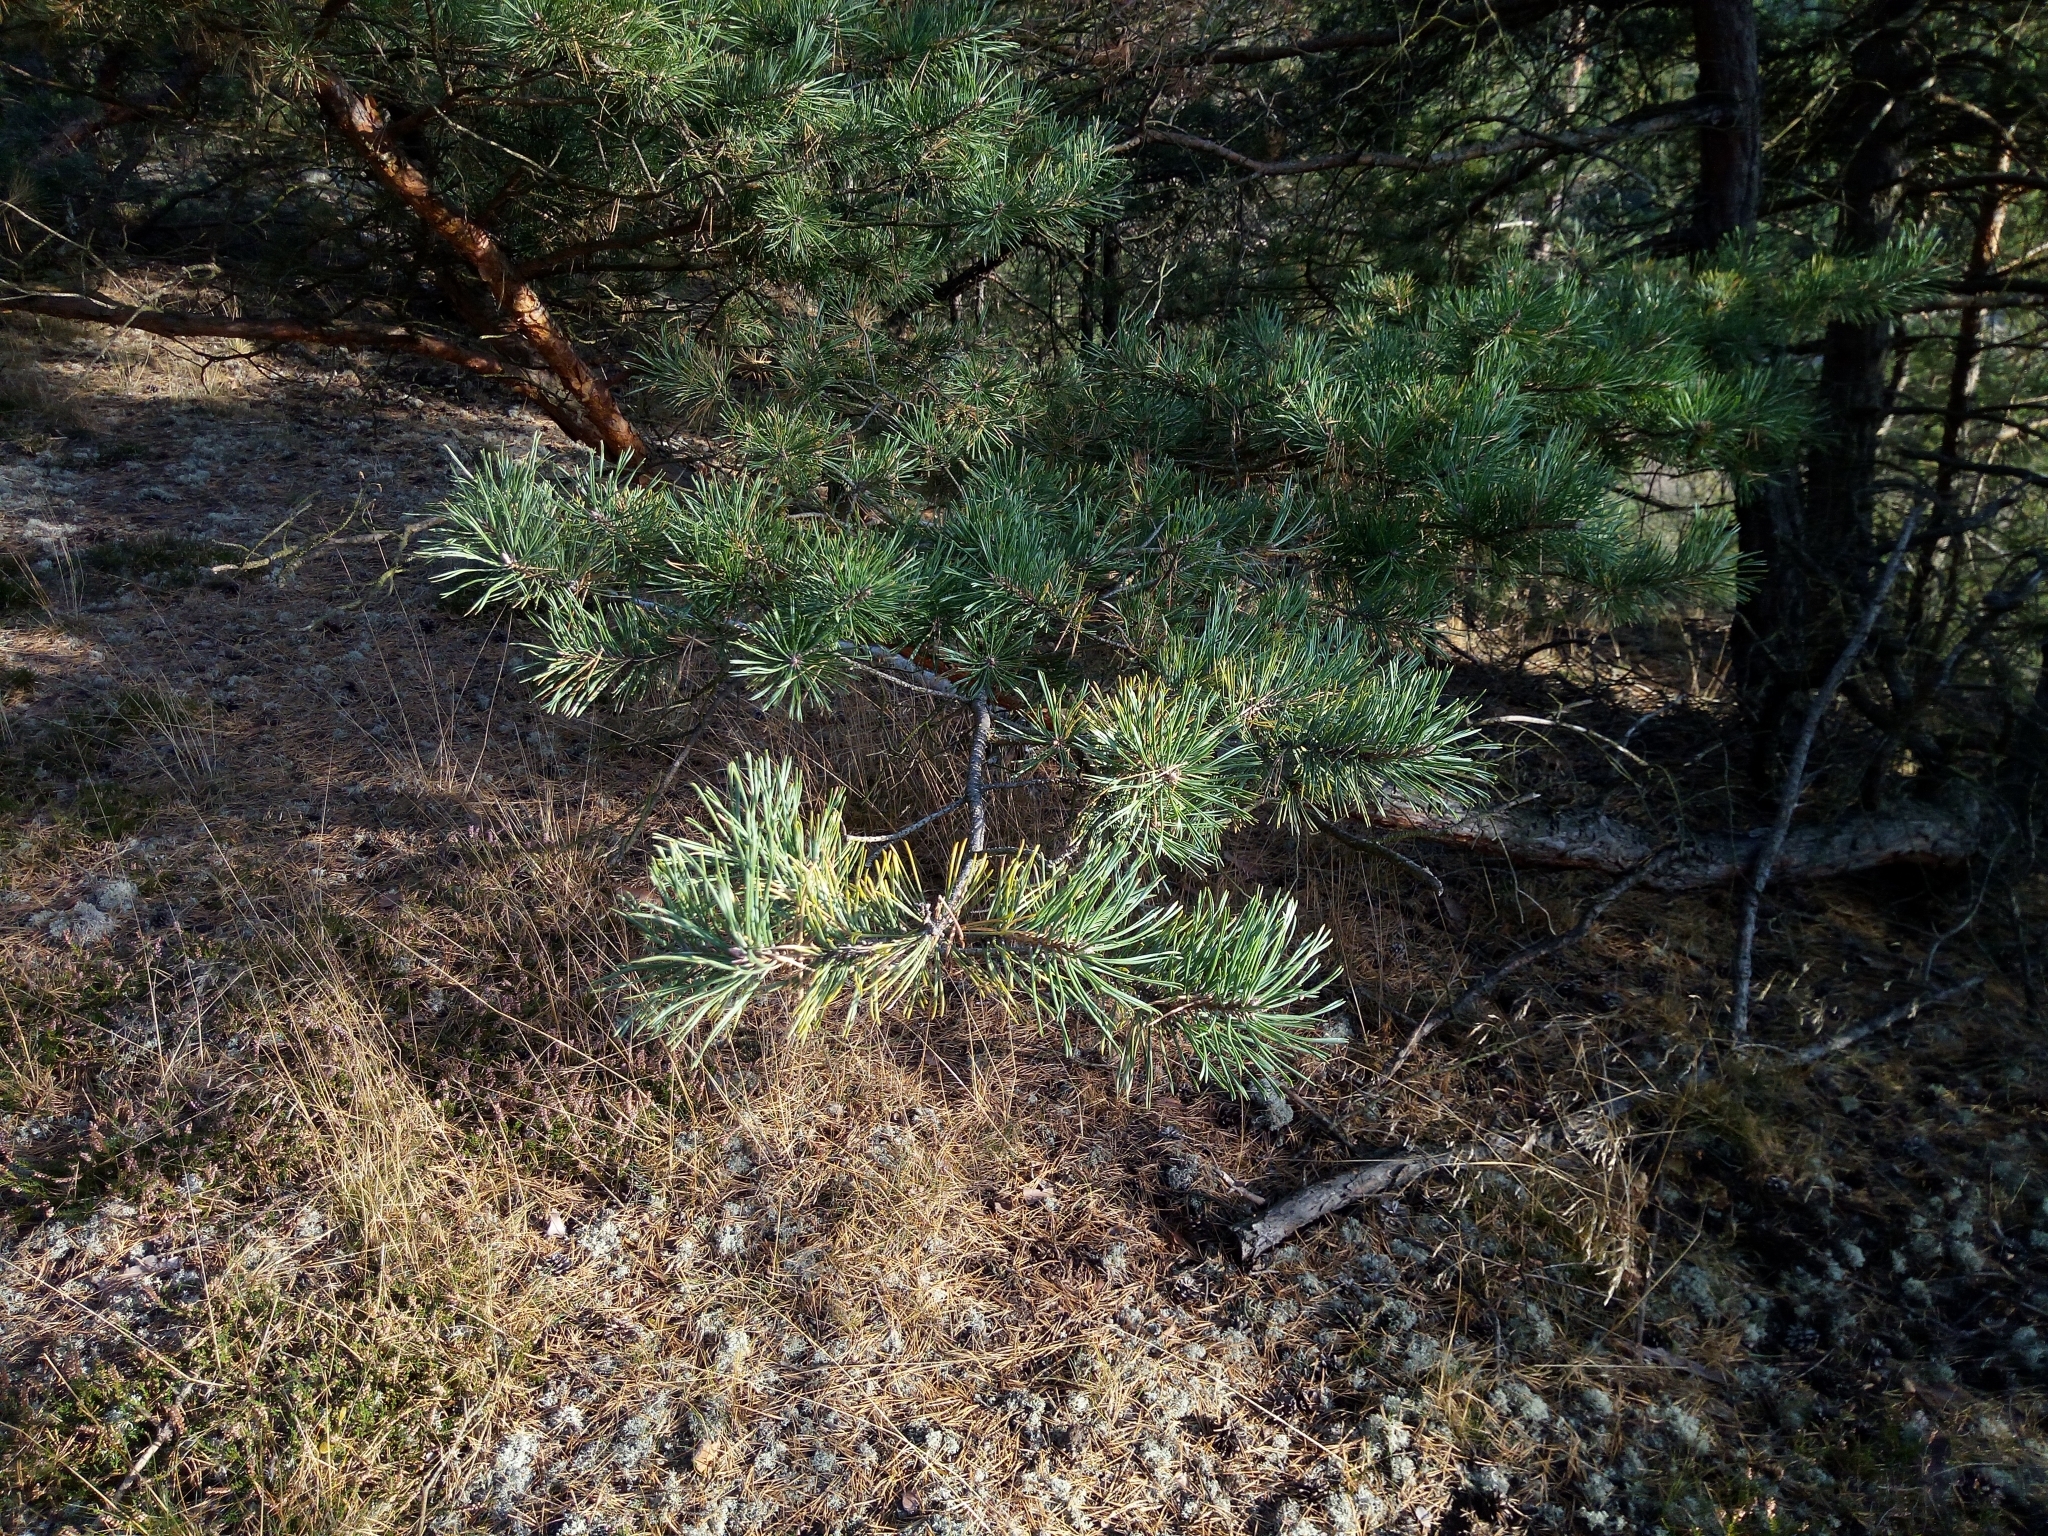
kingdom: Plantae
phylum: Tracheophyta
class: Pinopsida
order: Pinales
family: Pinaceae
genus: Pinus
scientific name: Pinus sylvestris
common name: Scots pine
